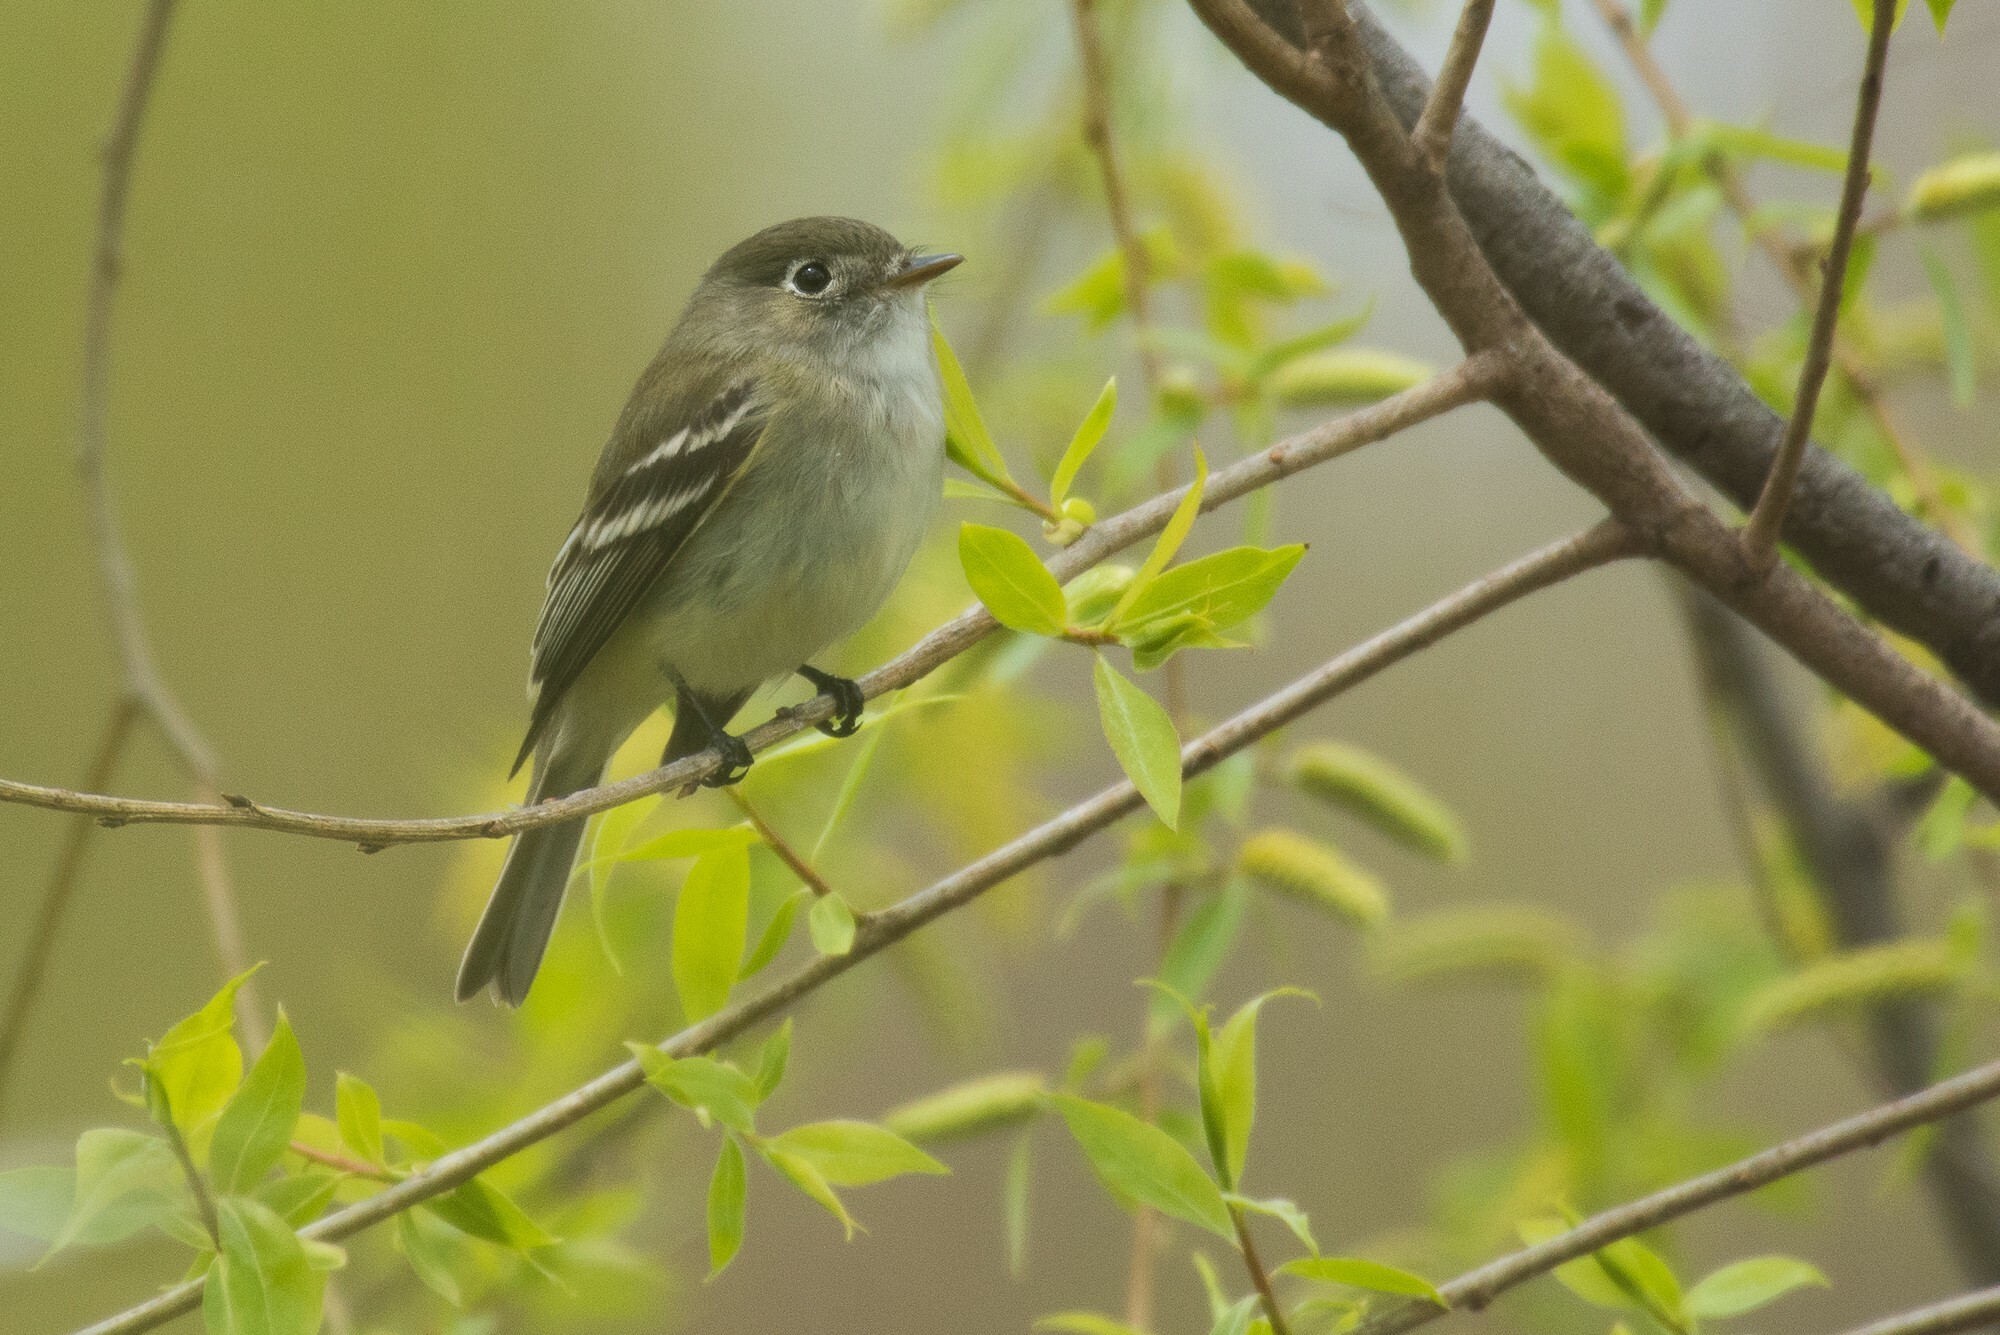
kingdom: Animalia
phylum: Chordata
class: Aves
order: Passeriformes
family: Tyrannidae
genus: Empidonax
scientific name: Empidonax minimus
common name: Least flycatcher
